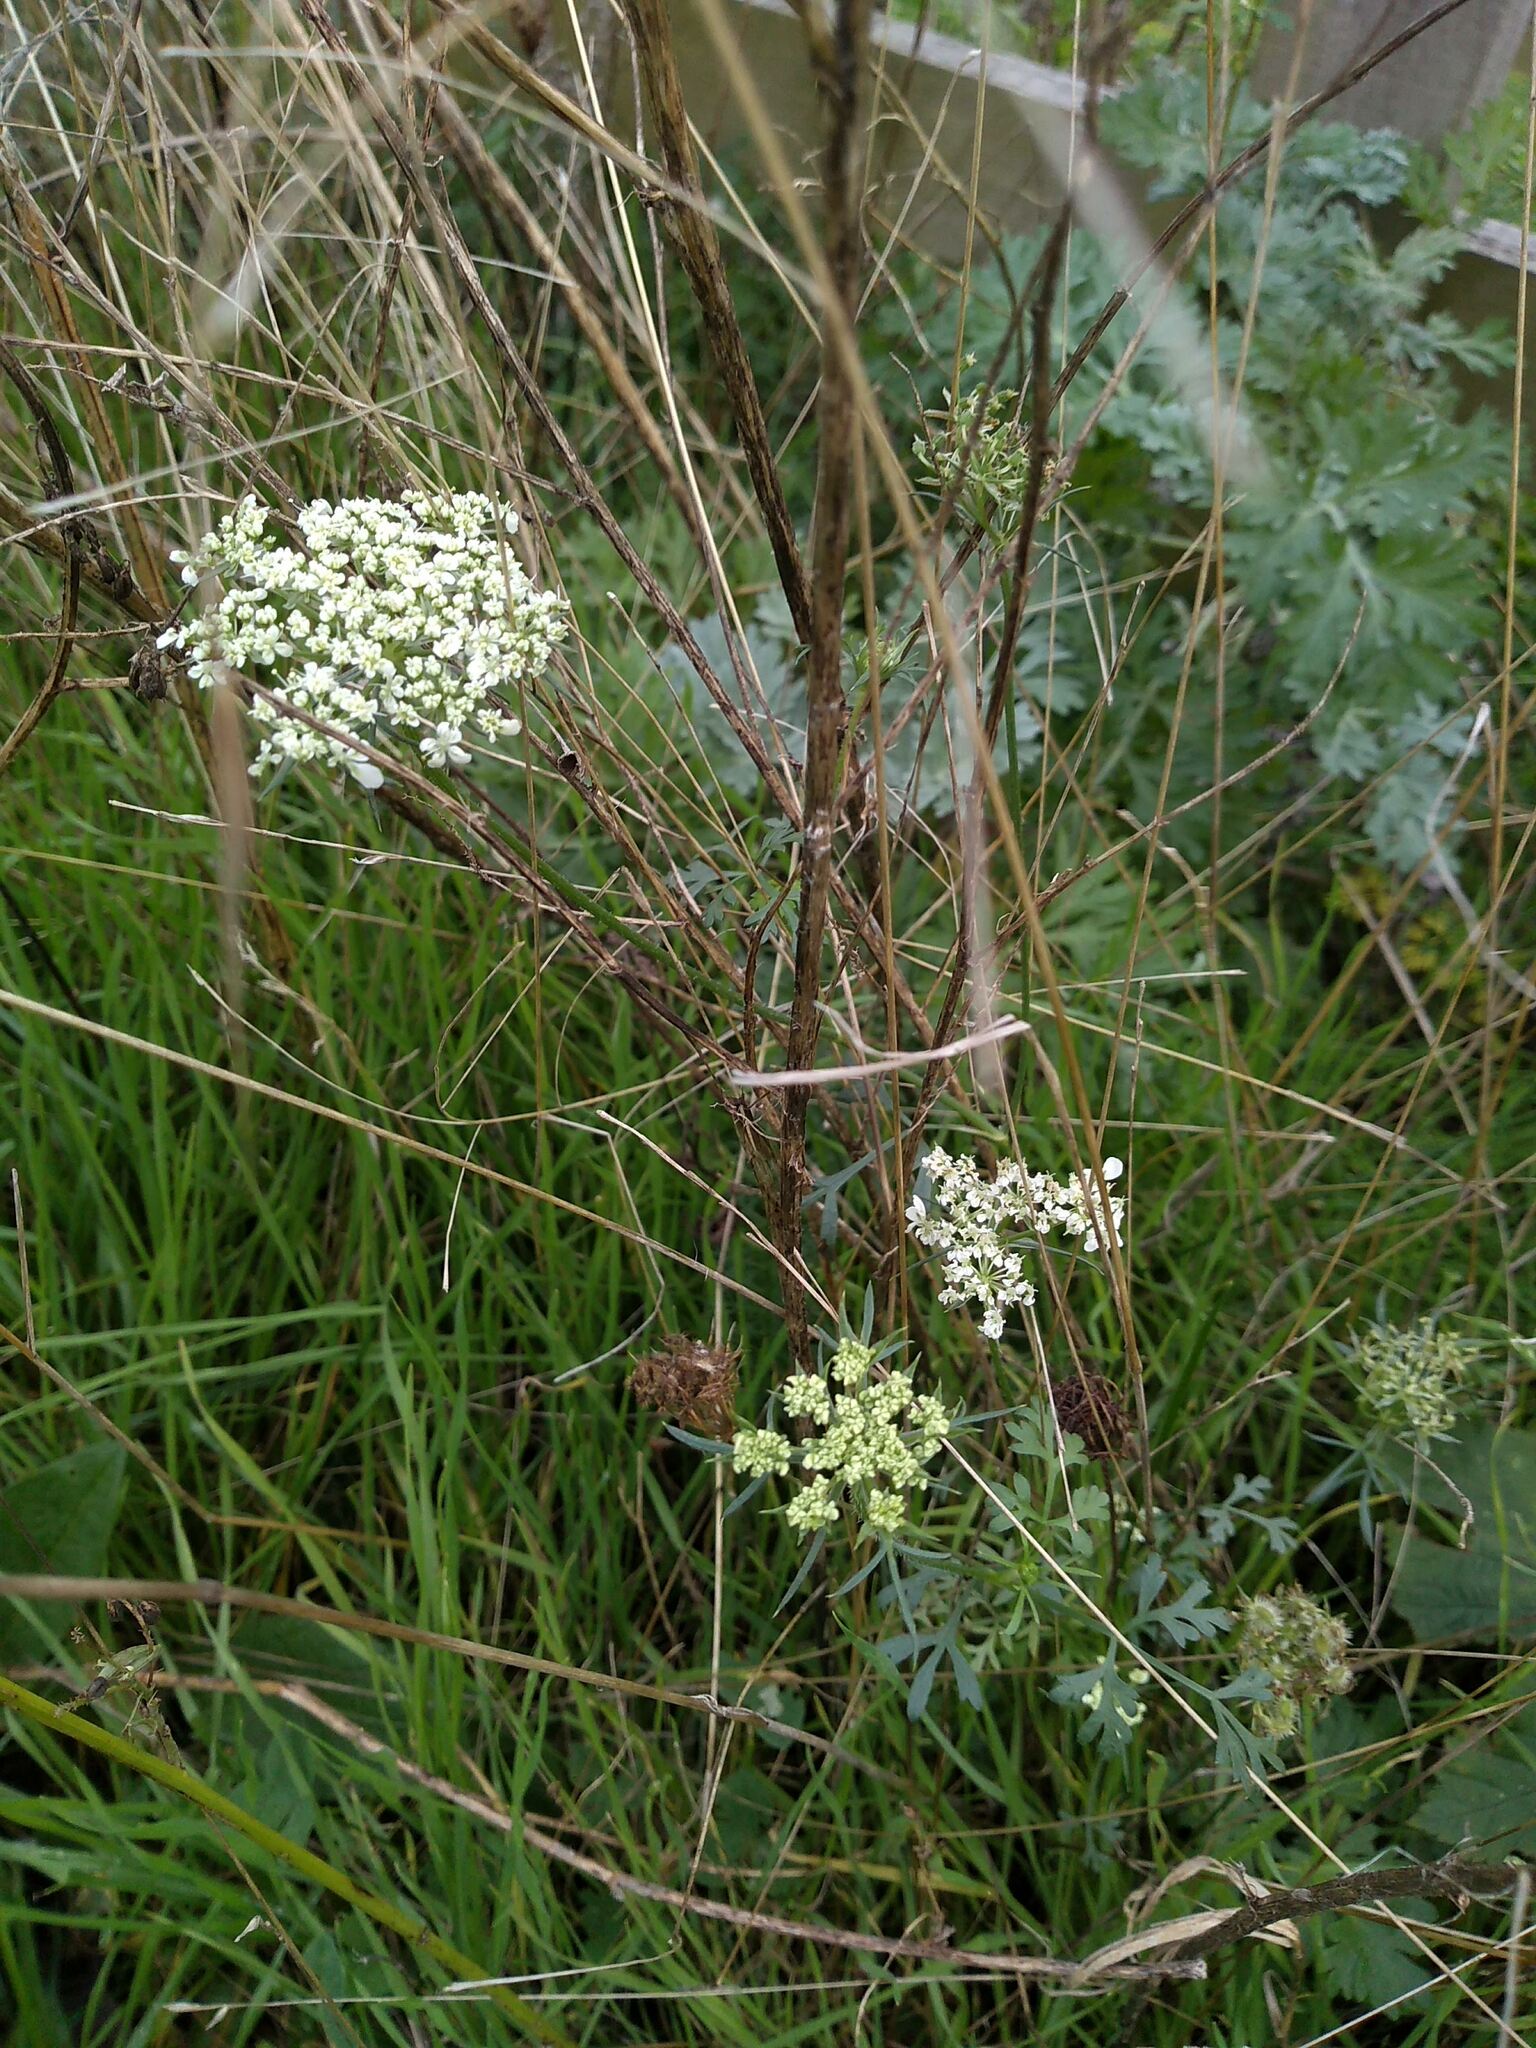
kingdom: Plantae
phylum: Tracheophyta
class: Magnoliopsida
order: Apiales
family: Apiaceae
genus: Daucus
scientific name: Daucus carota
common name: Wild carrot
